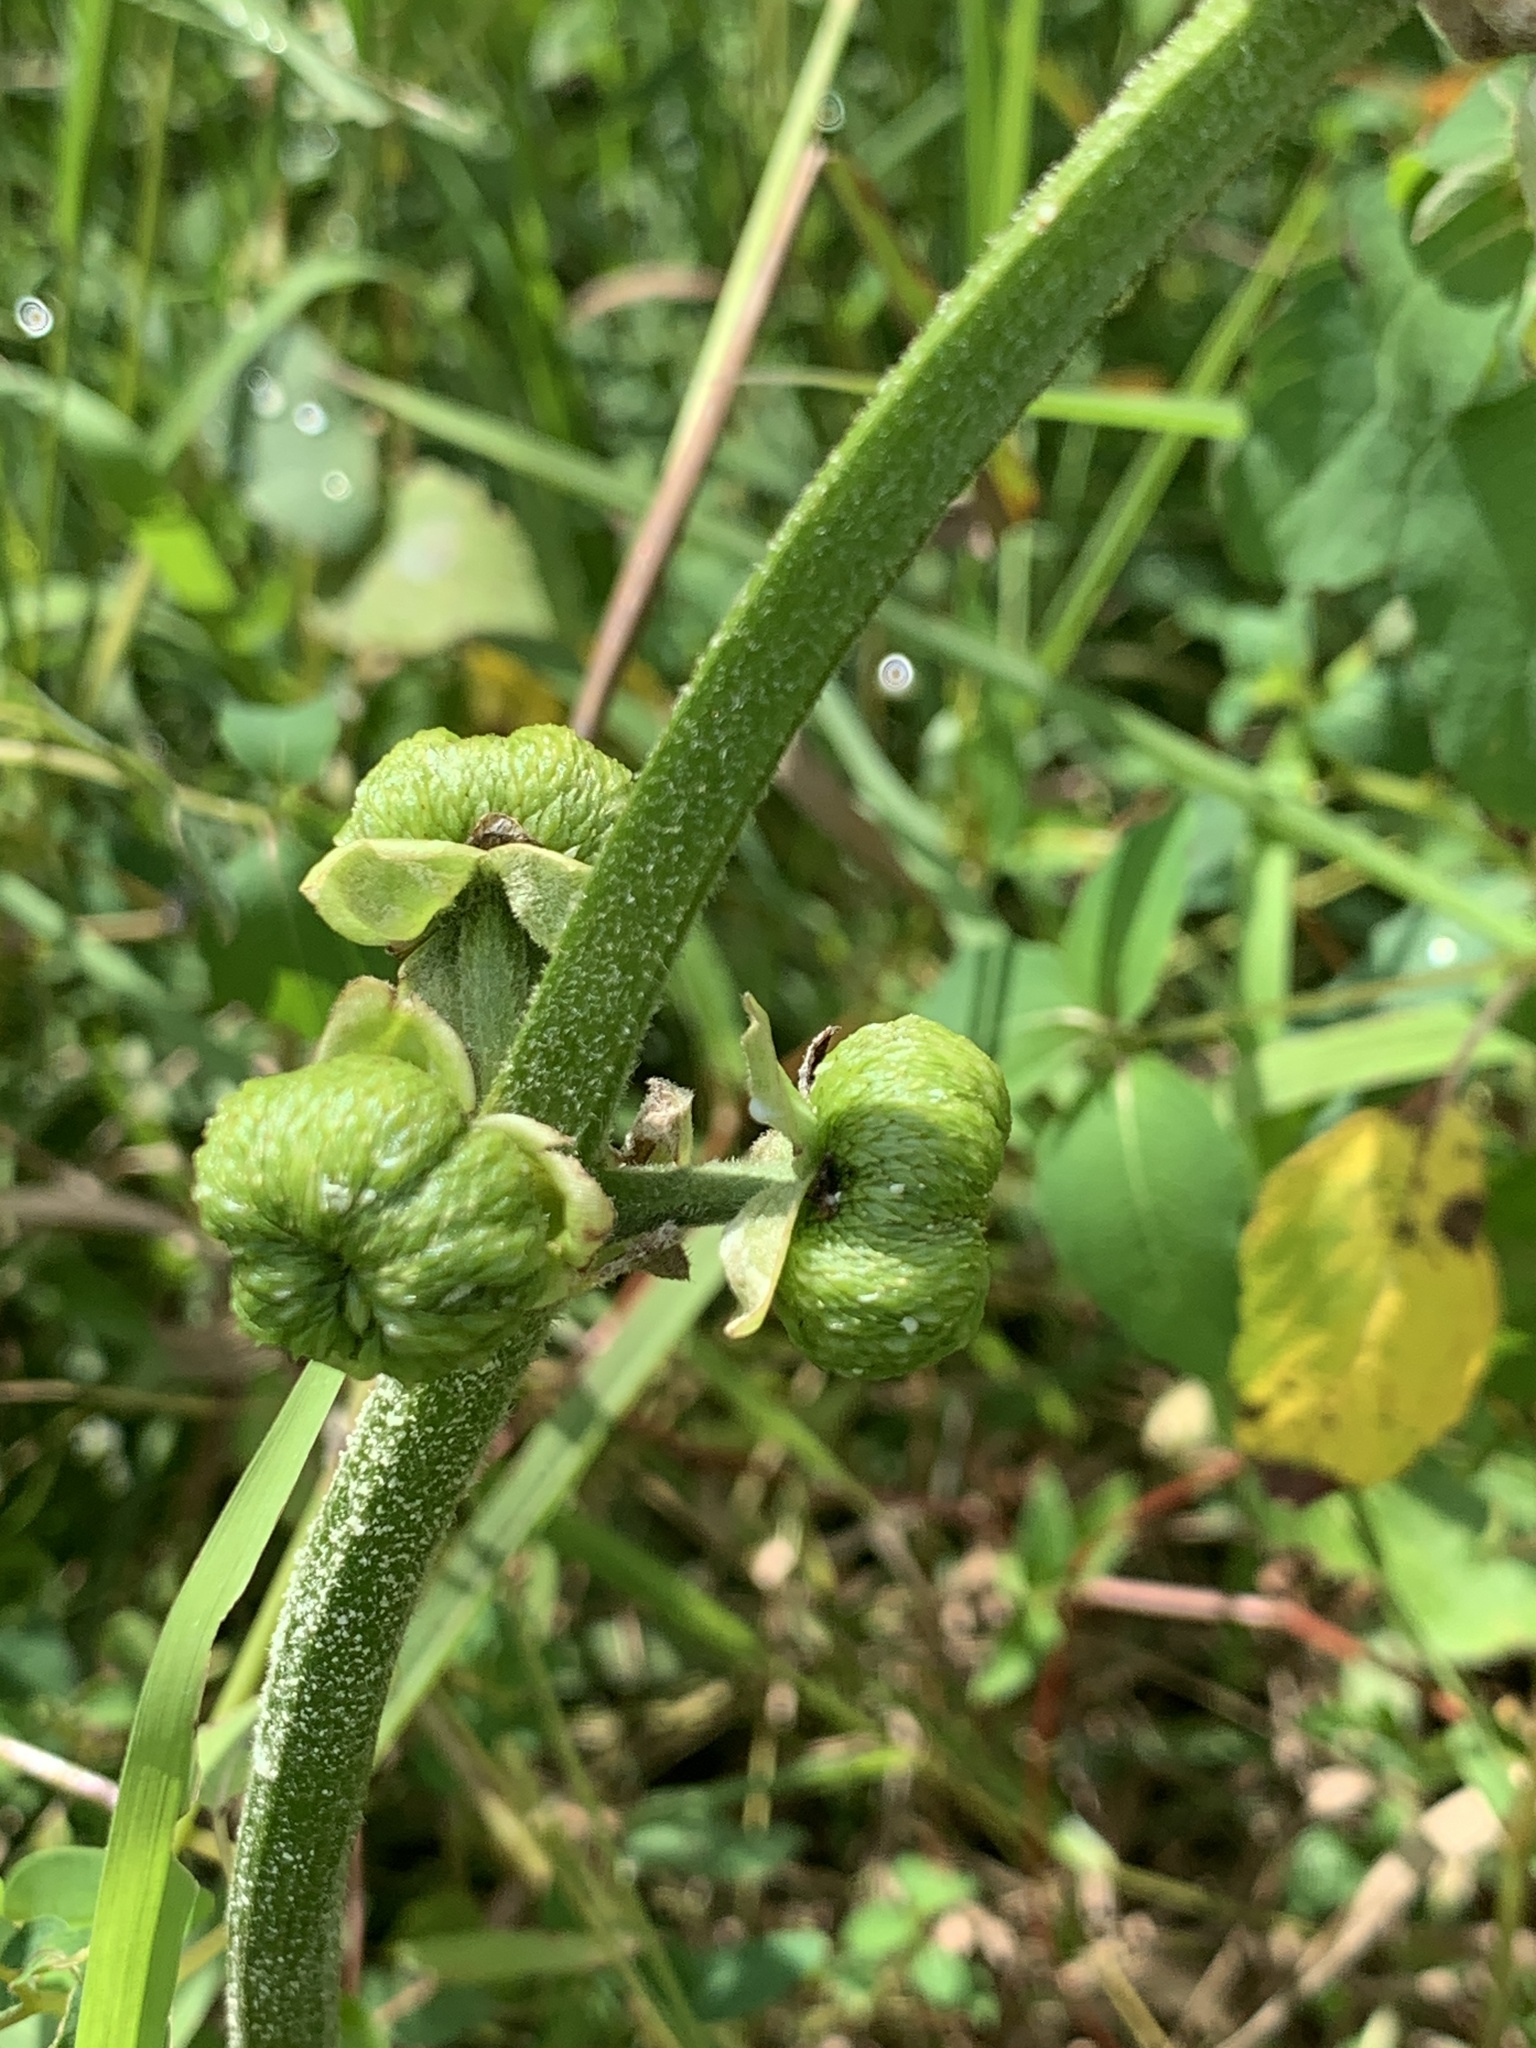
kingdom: Plantae
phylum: Tracheophyta
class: Liliopsida
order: Alismatales
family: Alismataceae
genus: Sagittaria
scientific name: Sagittaria latifolia
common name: Duck-potato
